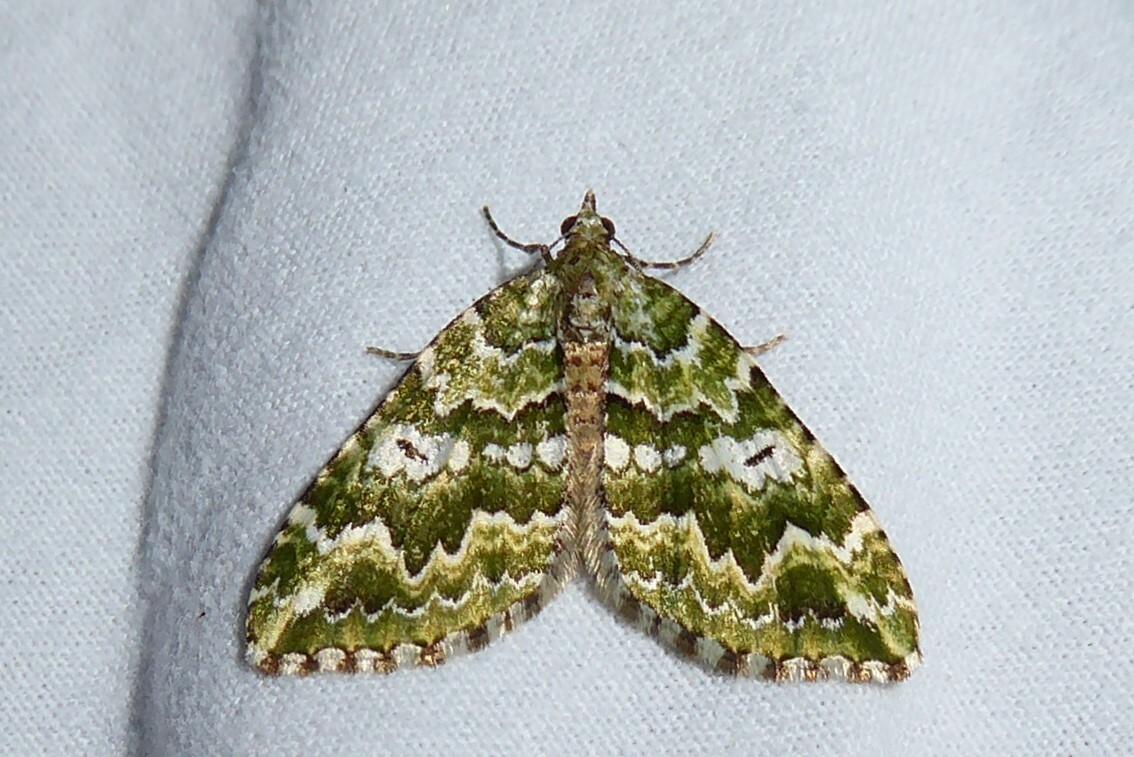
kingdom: Animalia
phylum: Arthropoda
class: Insecta
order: Lepidoptera
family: Geometridae
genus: Asaphodes
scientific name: Asaphodes beata
